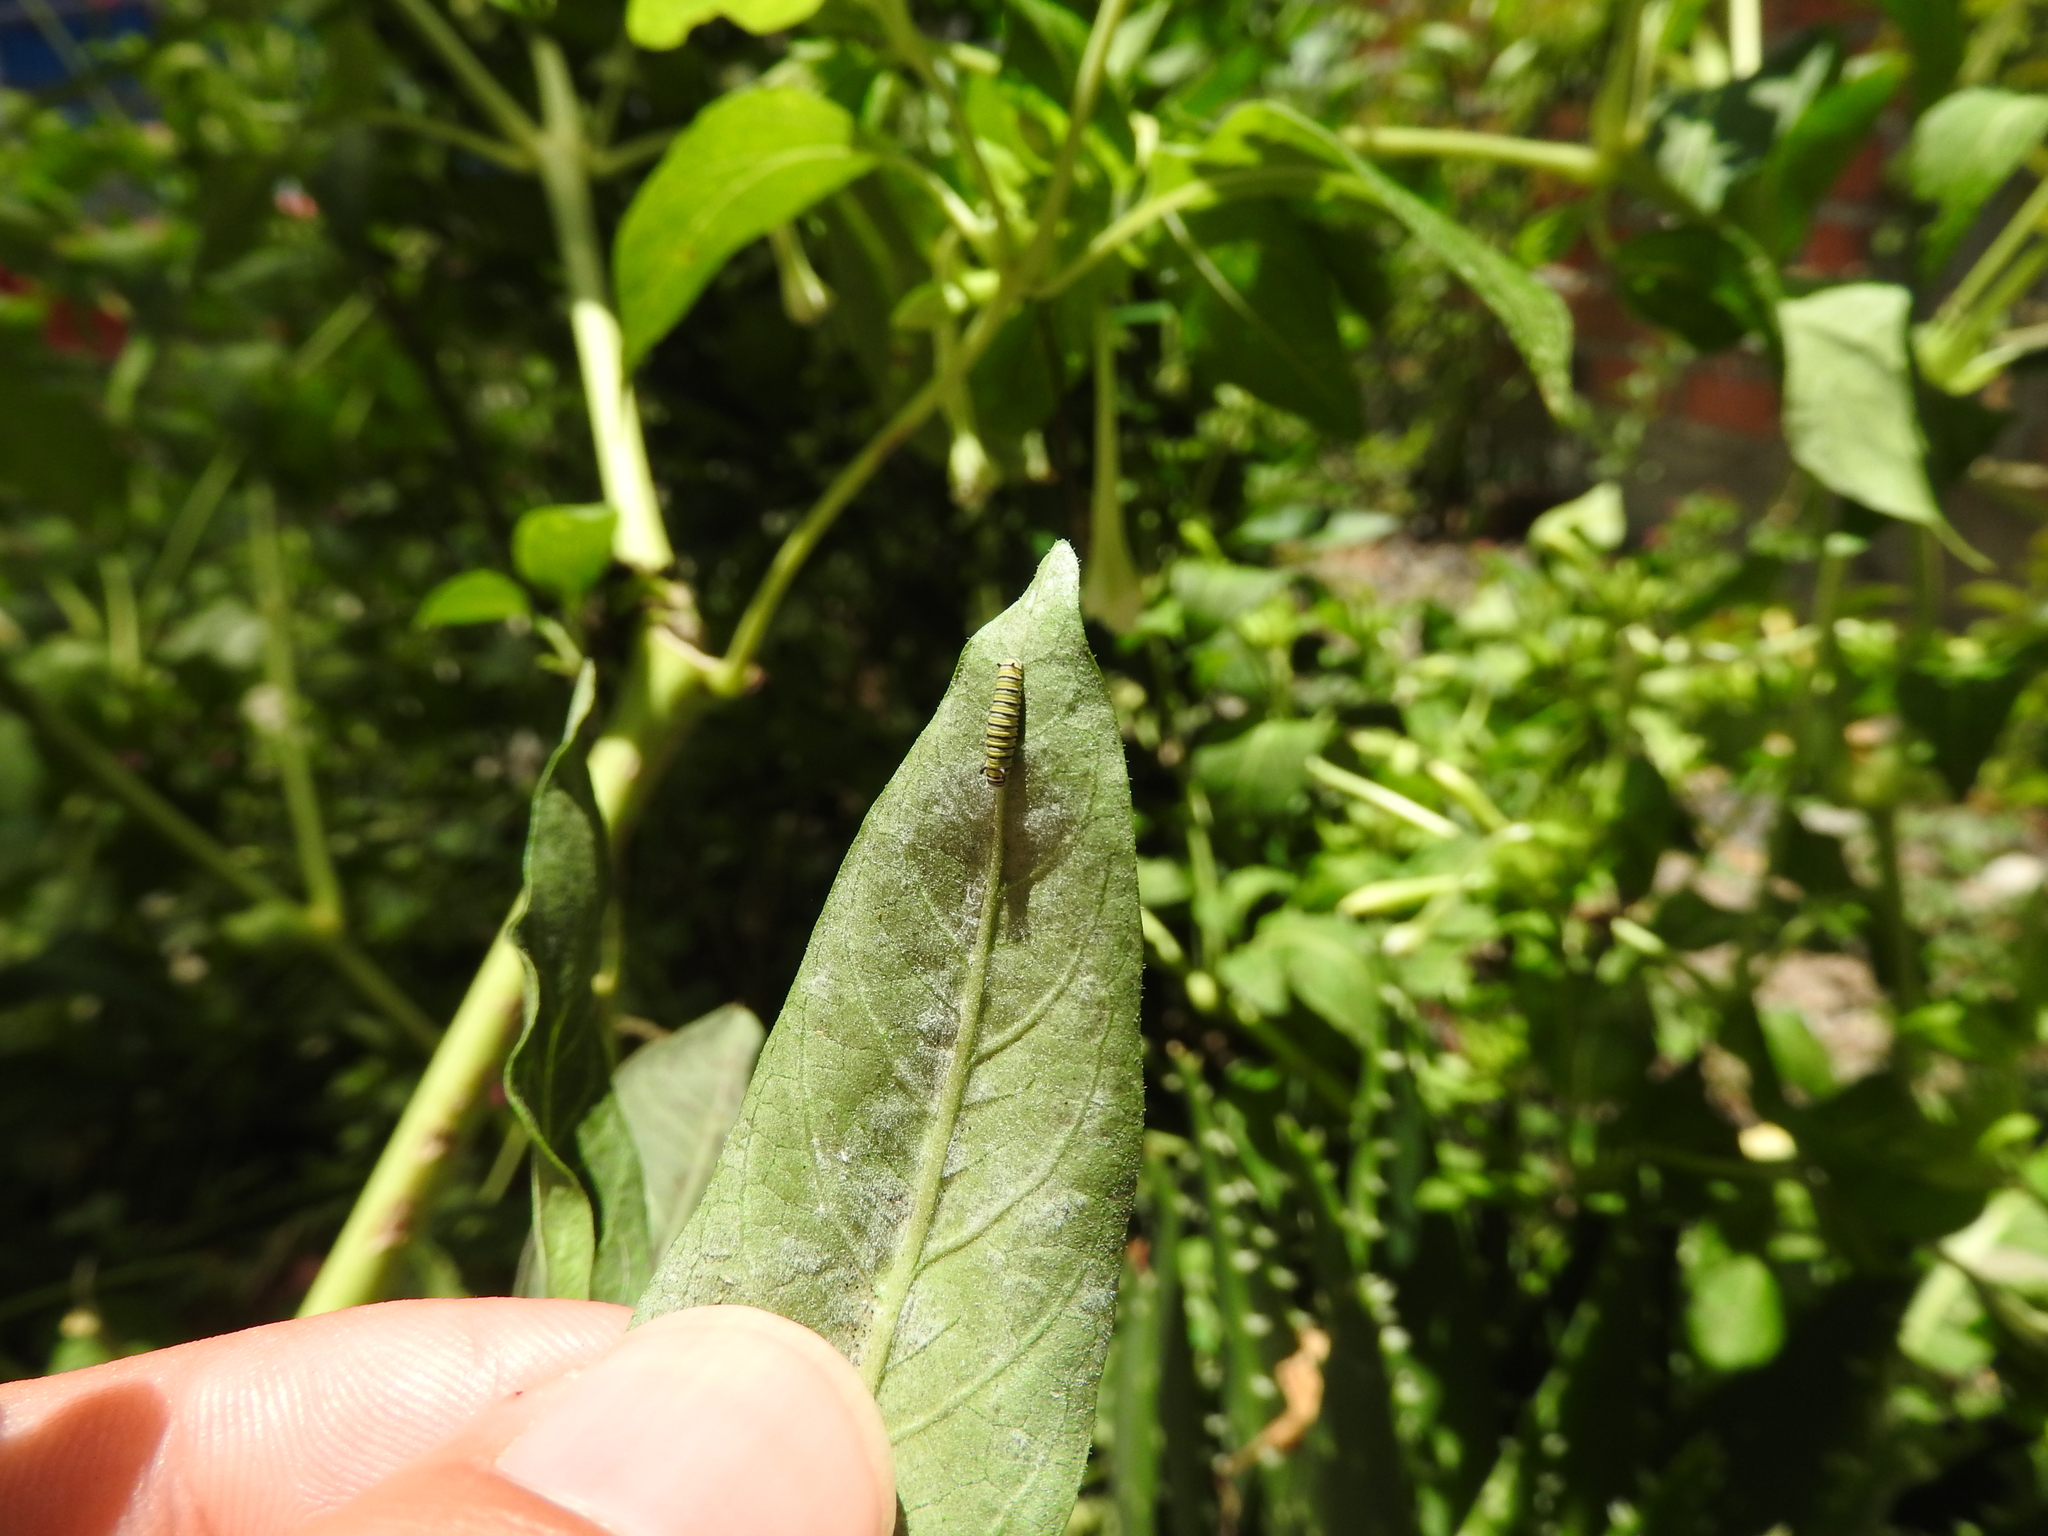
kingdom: Animalia
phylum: Arthropoda
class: Insecta
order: Lepidoptera
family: Nymphalidae
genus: Danaus
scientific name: Danaus plexippus
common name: Monarch
